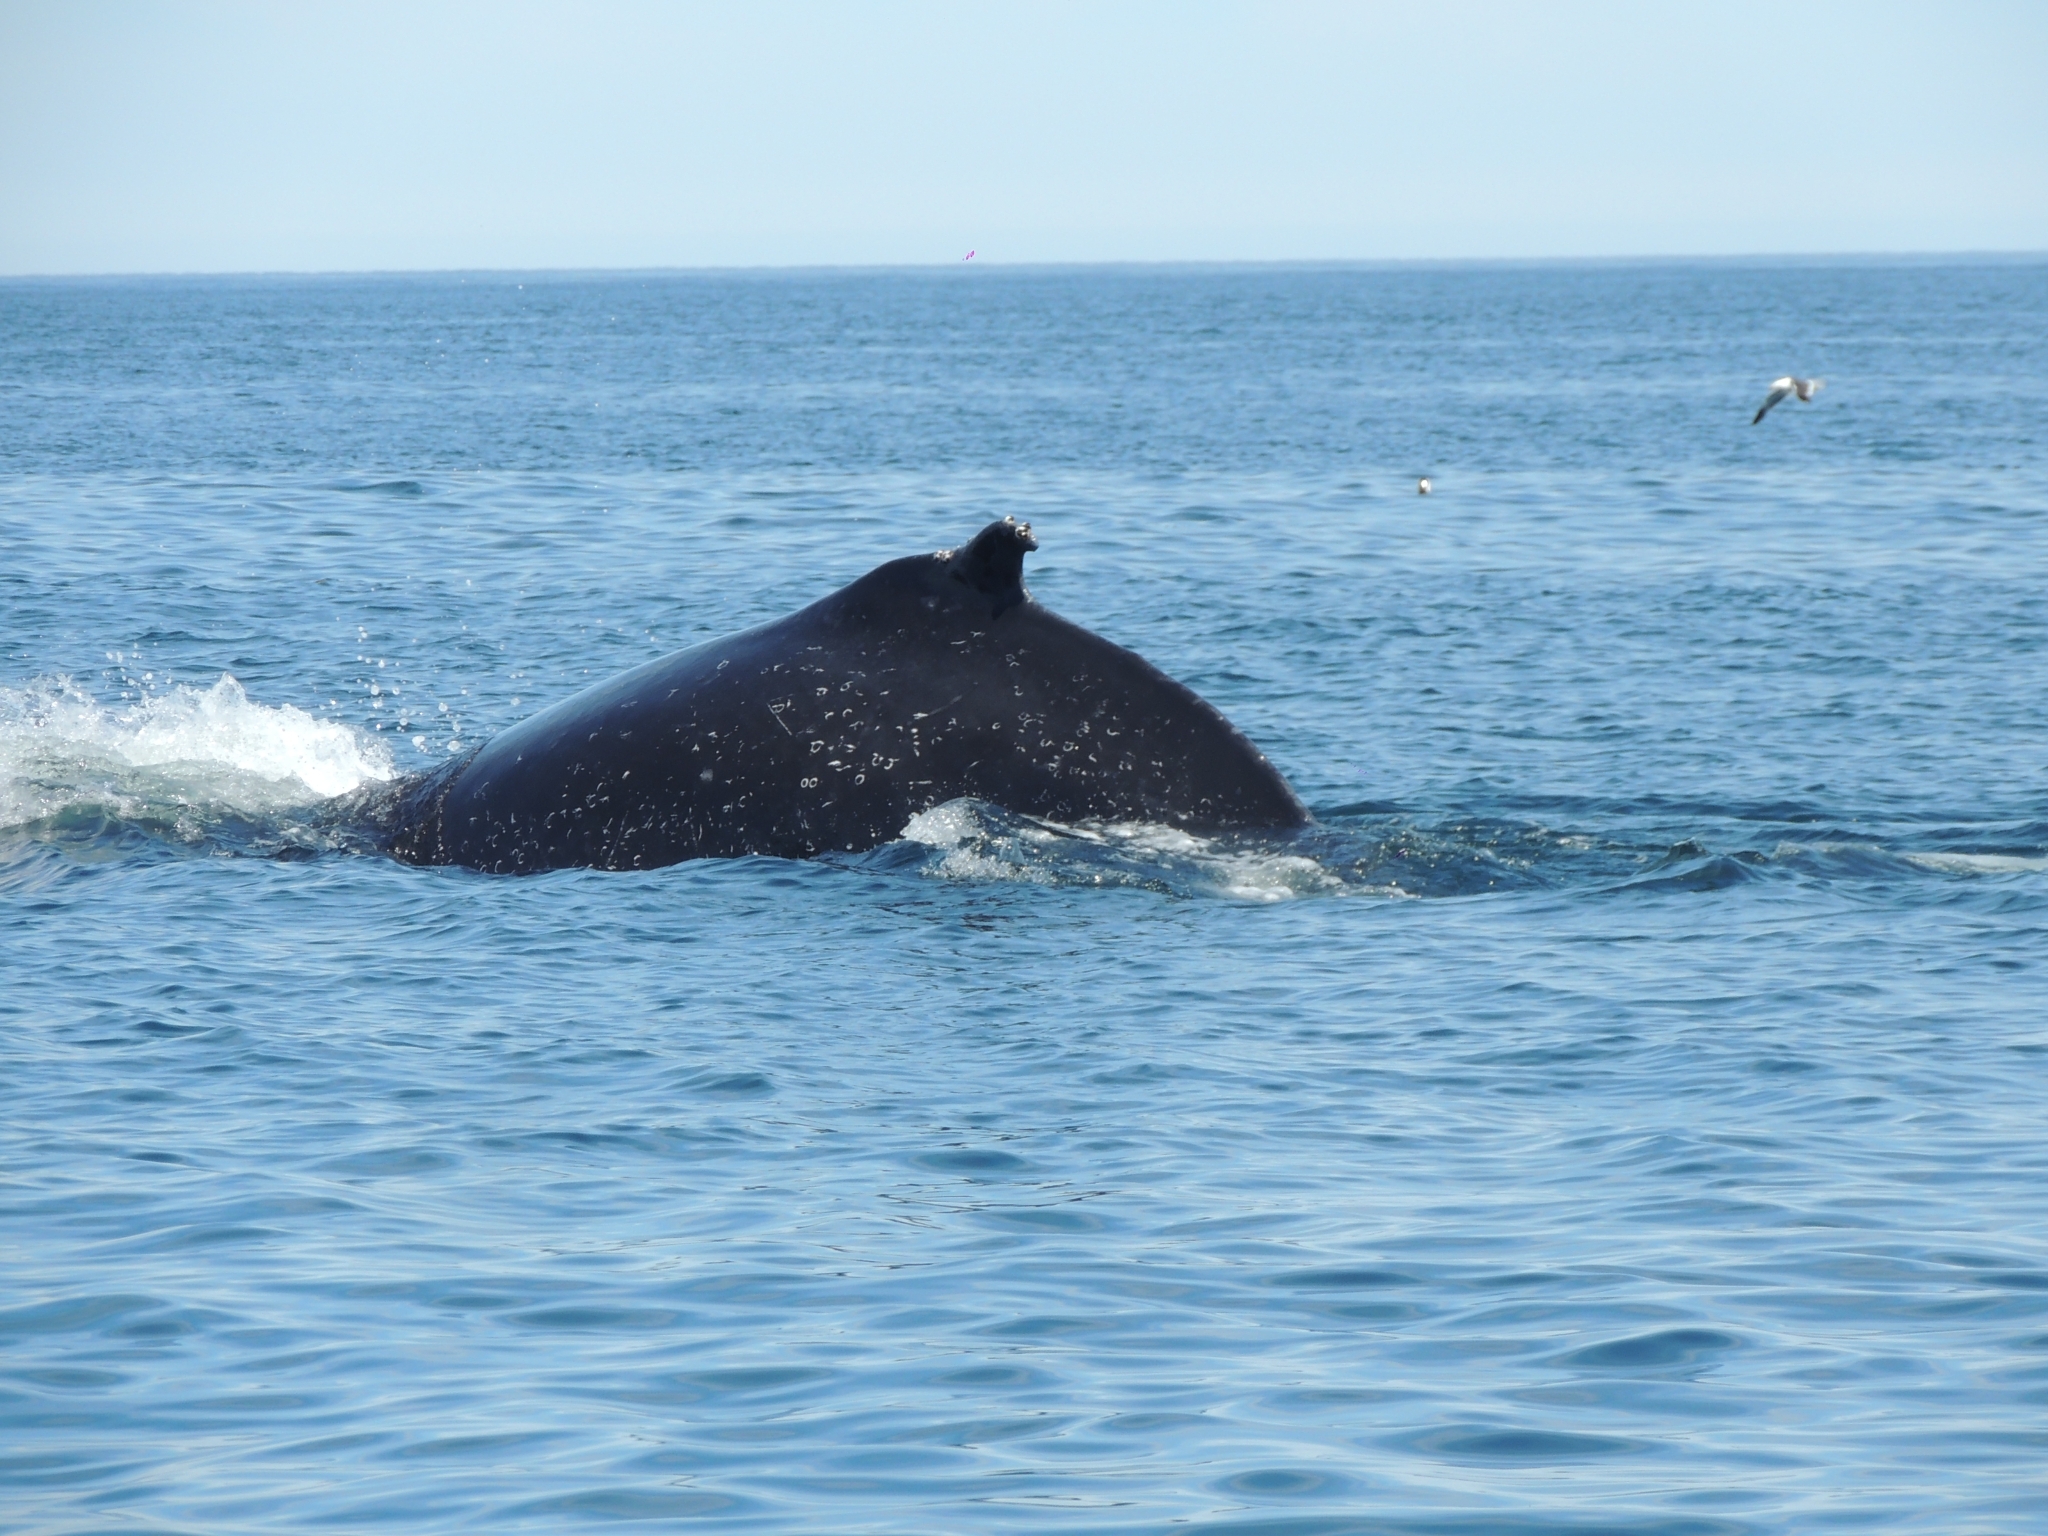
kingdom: Animalia
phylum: Chordata
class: Mammalia
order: Cetacea
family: Balaenopteridae
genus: Megaptera
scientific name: Megaptera novaeangliae
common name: Humpback whale
